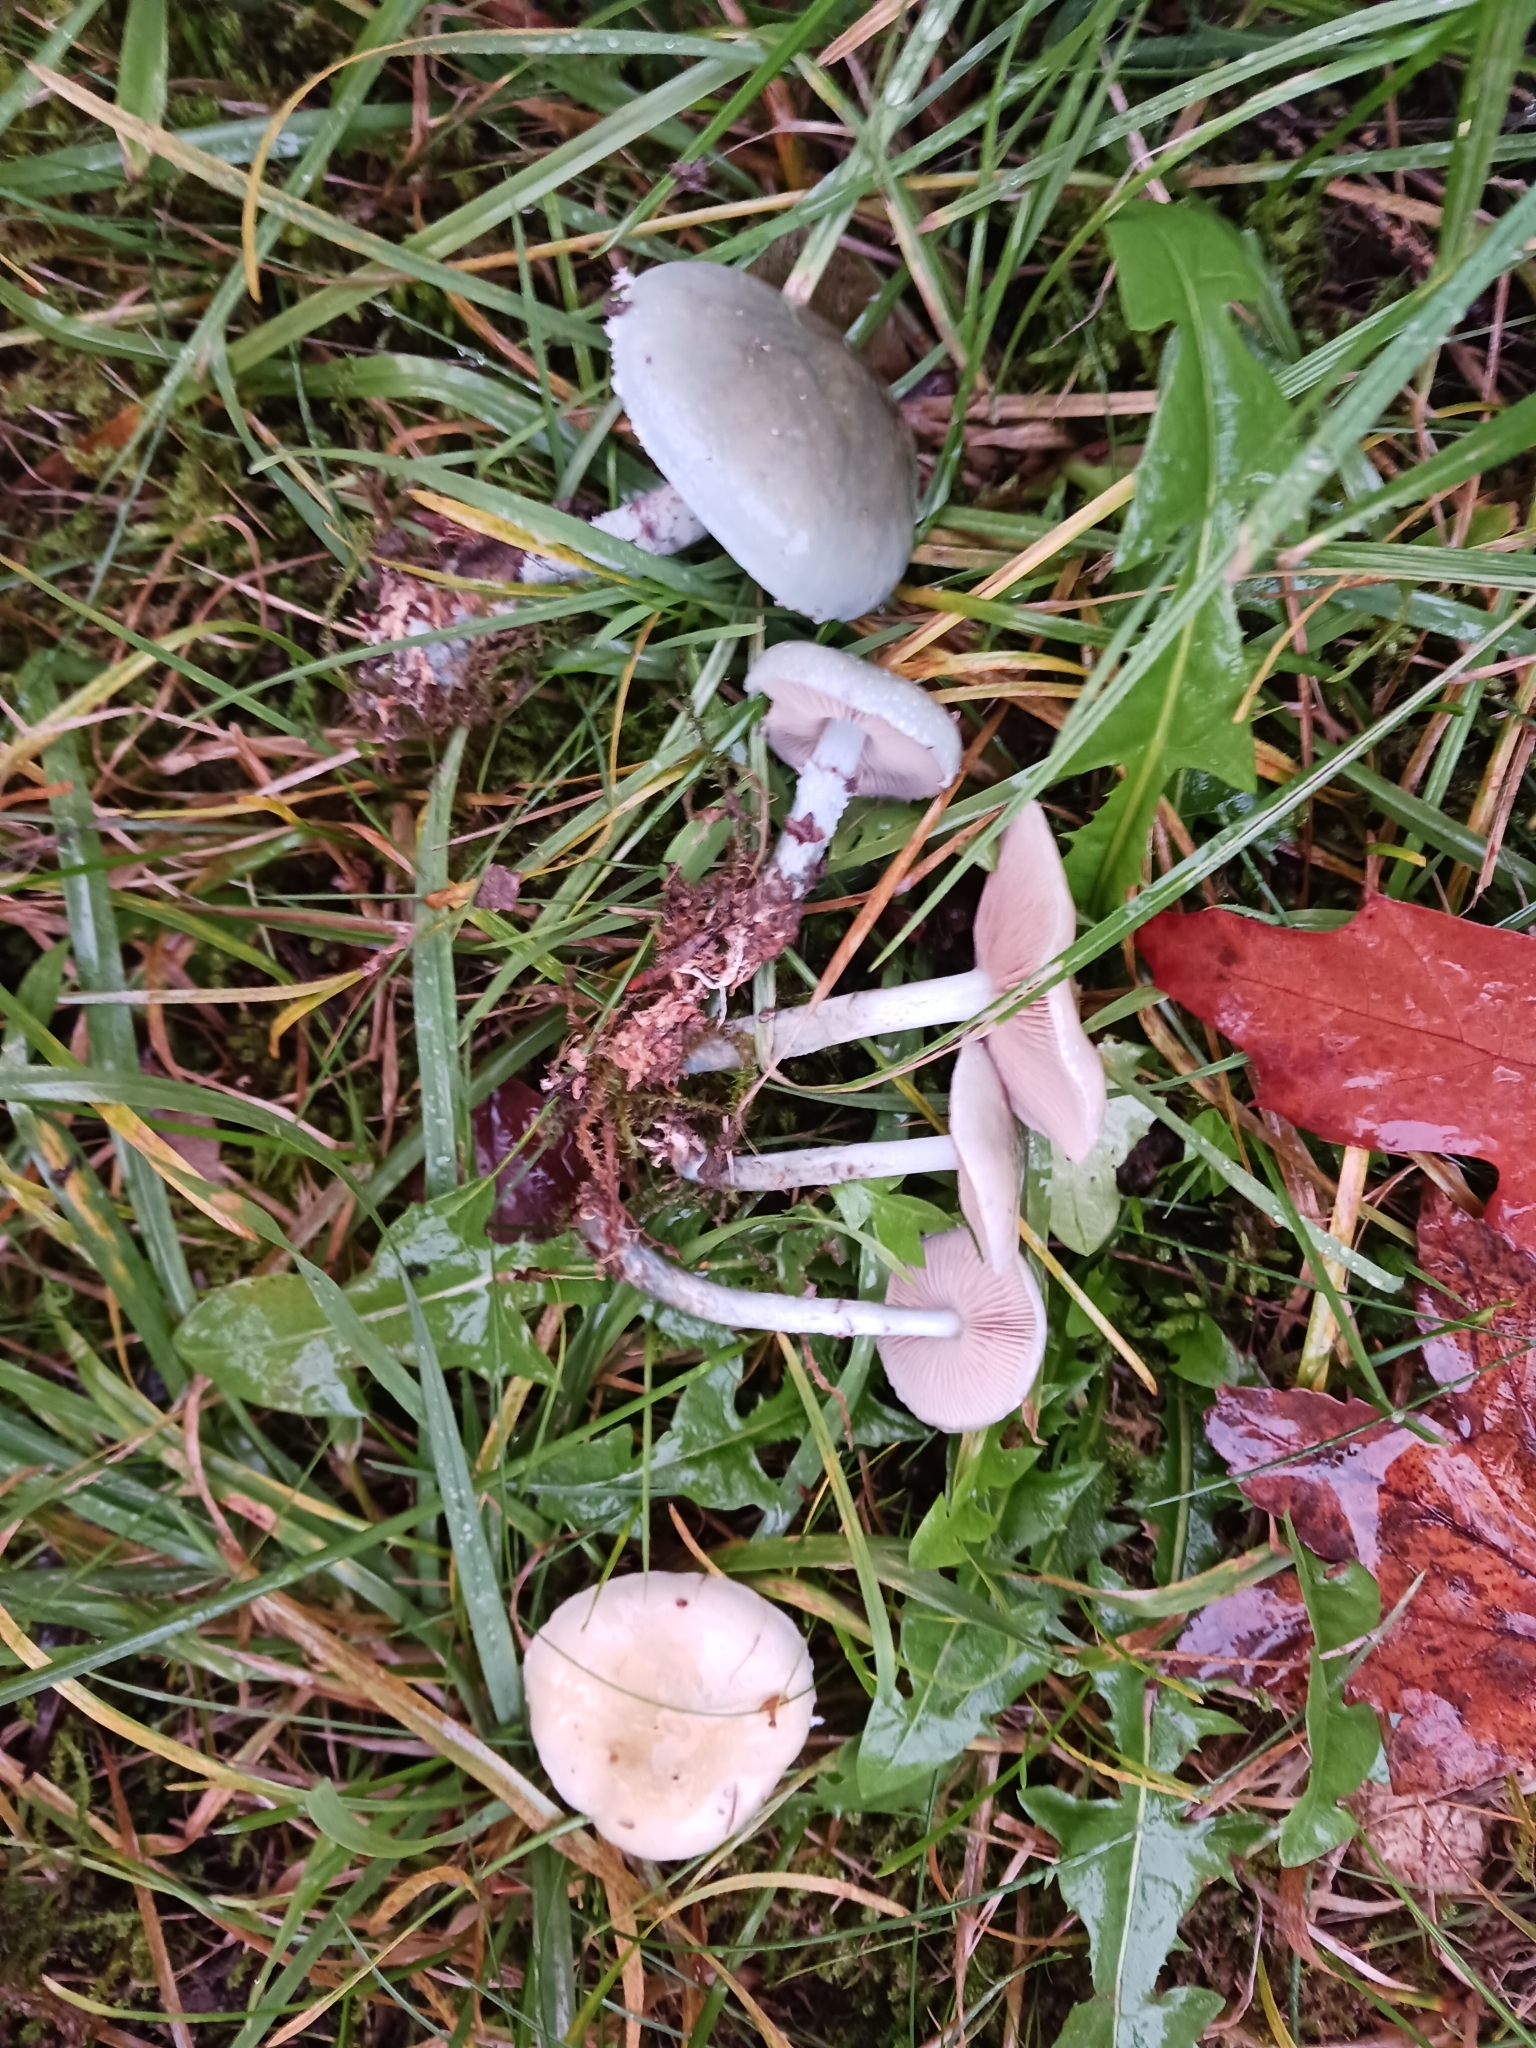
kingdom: Fungi
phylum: Basidiomycota
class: Agaricomycetes
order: Agaricales
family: Strophariaceae
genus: Stropharia
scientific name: Stropharia caerulea
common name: Blue roundhead
